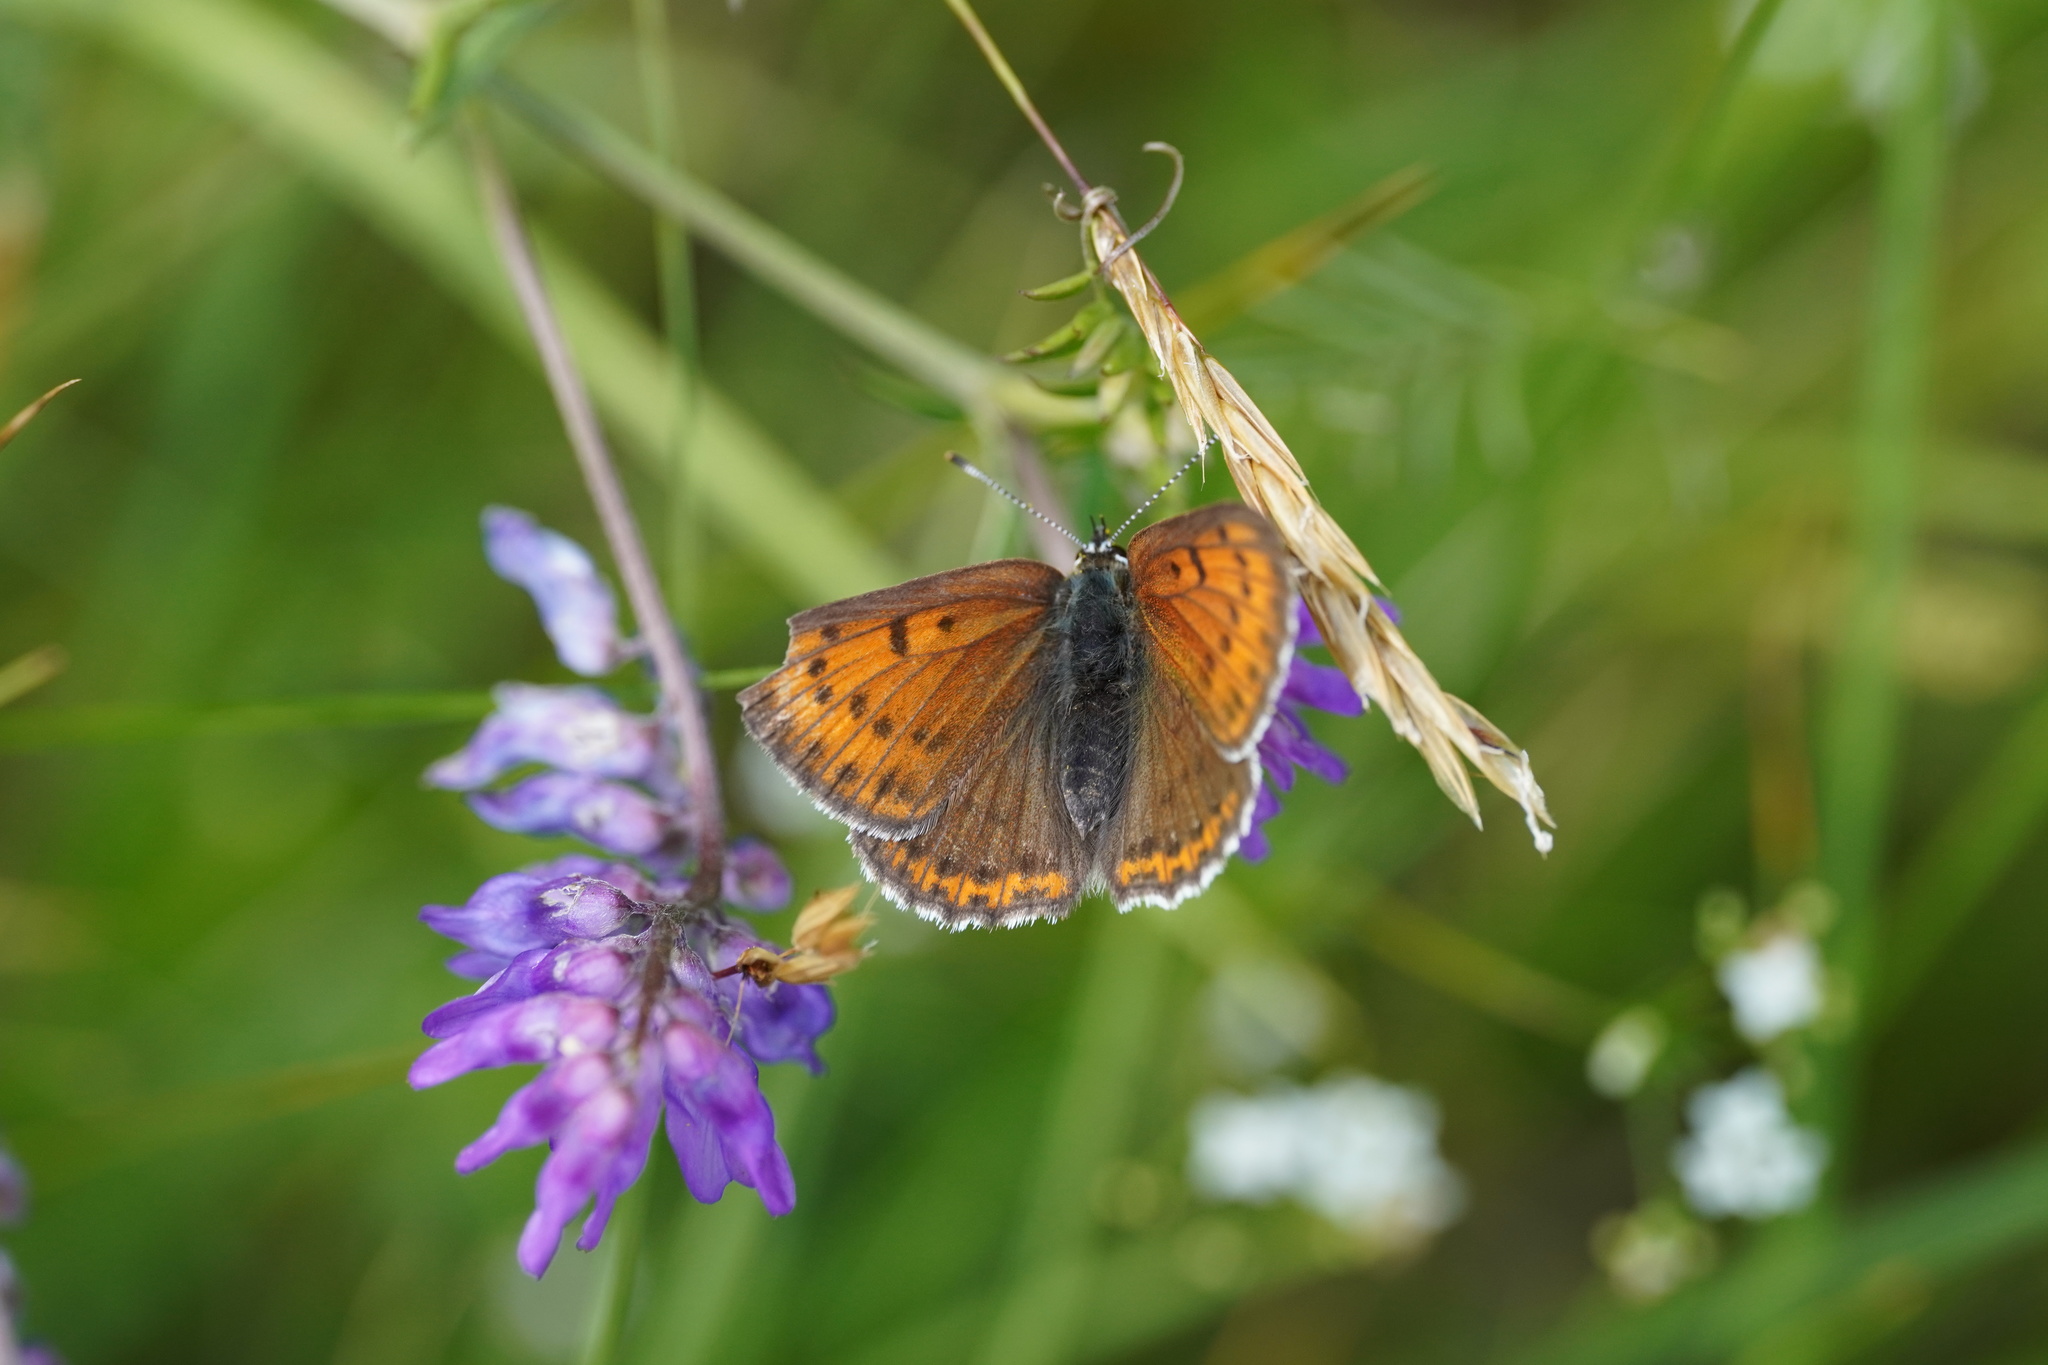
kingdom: Animalia
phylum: Arthropoda
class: Insecta
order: Lepidoptera
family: Lycaenidae
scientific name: Lycaenidae
